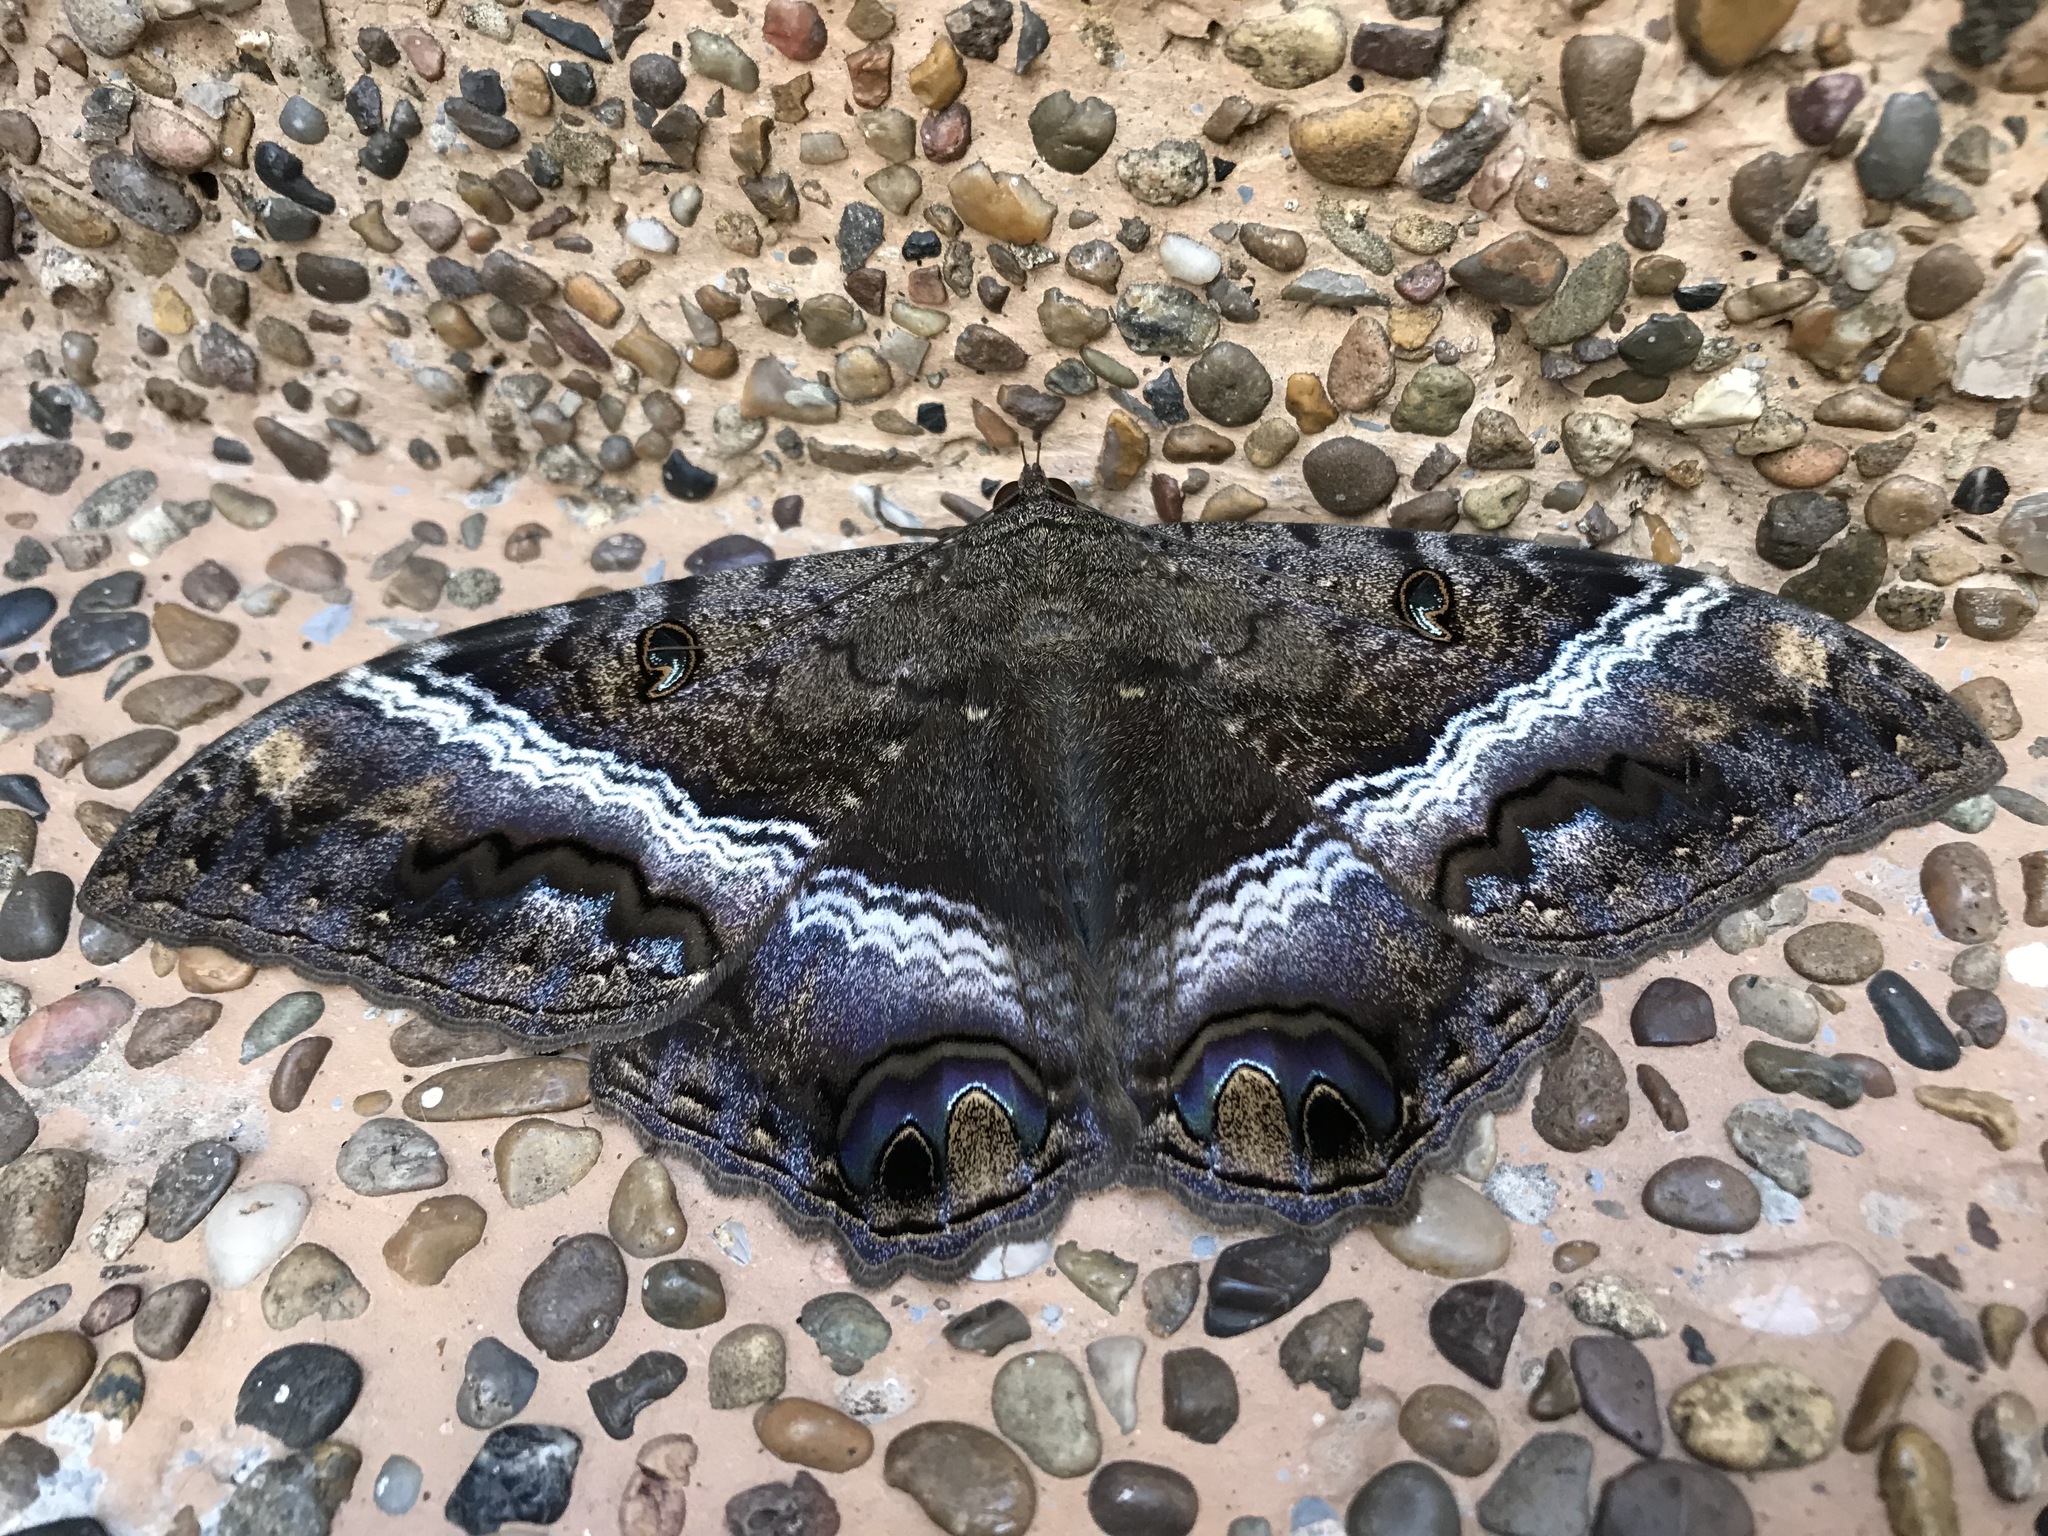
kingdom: Animalia
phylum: Arthropoda
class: Insecta
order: Lepidoptera
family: Erebidae
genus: Ascalapha
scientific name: Ascalapha odorata
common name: Black witch
